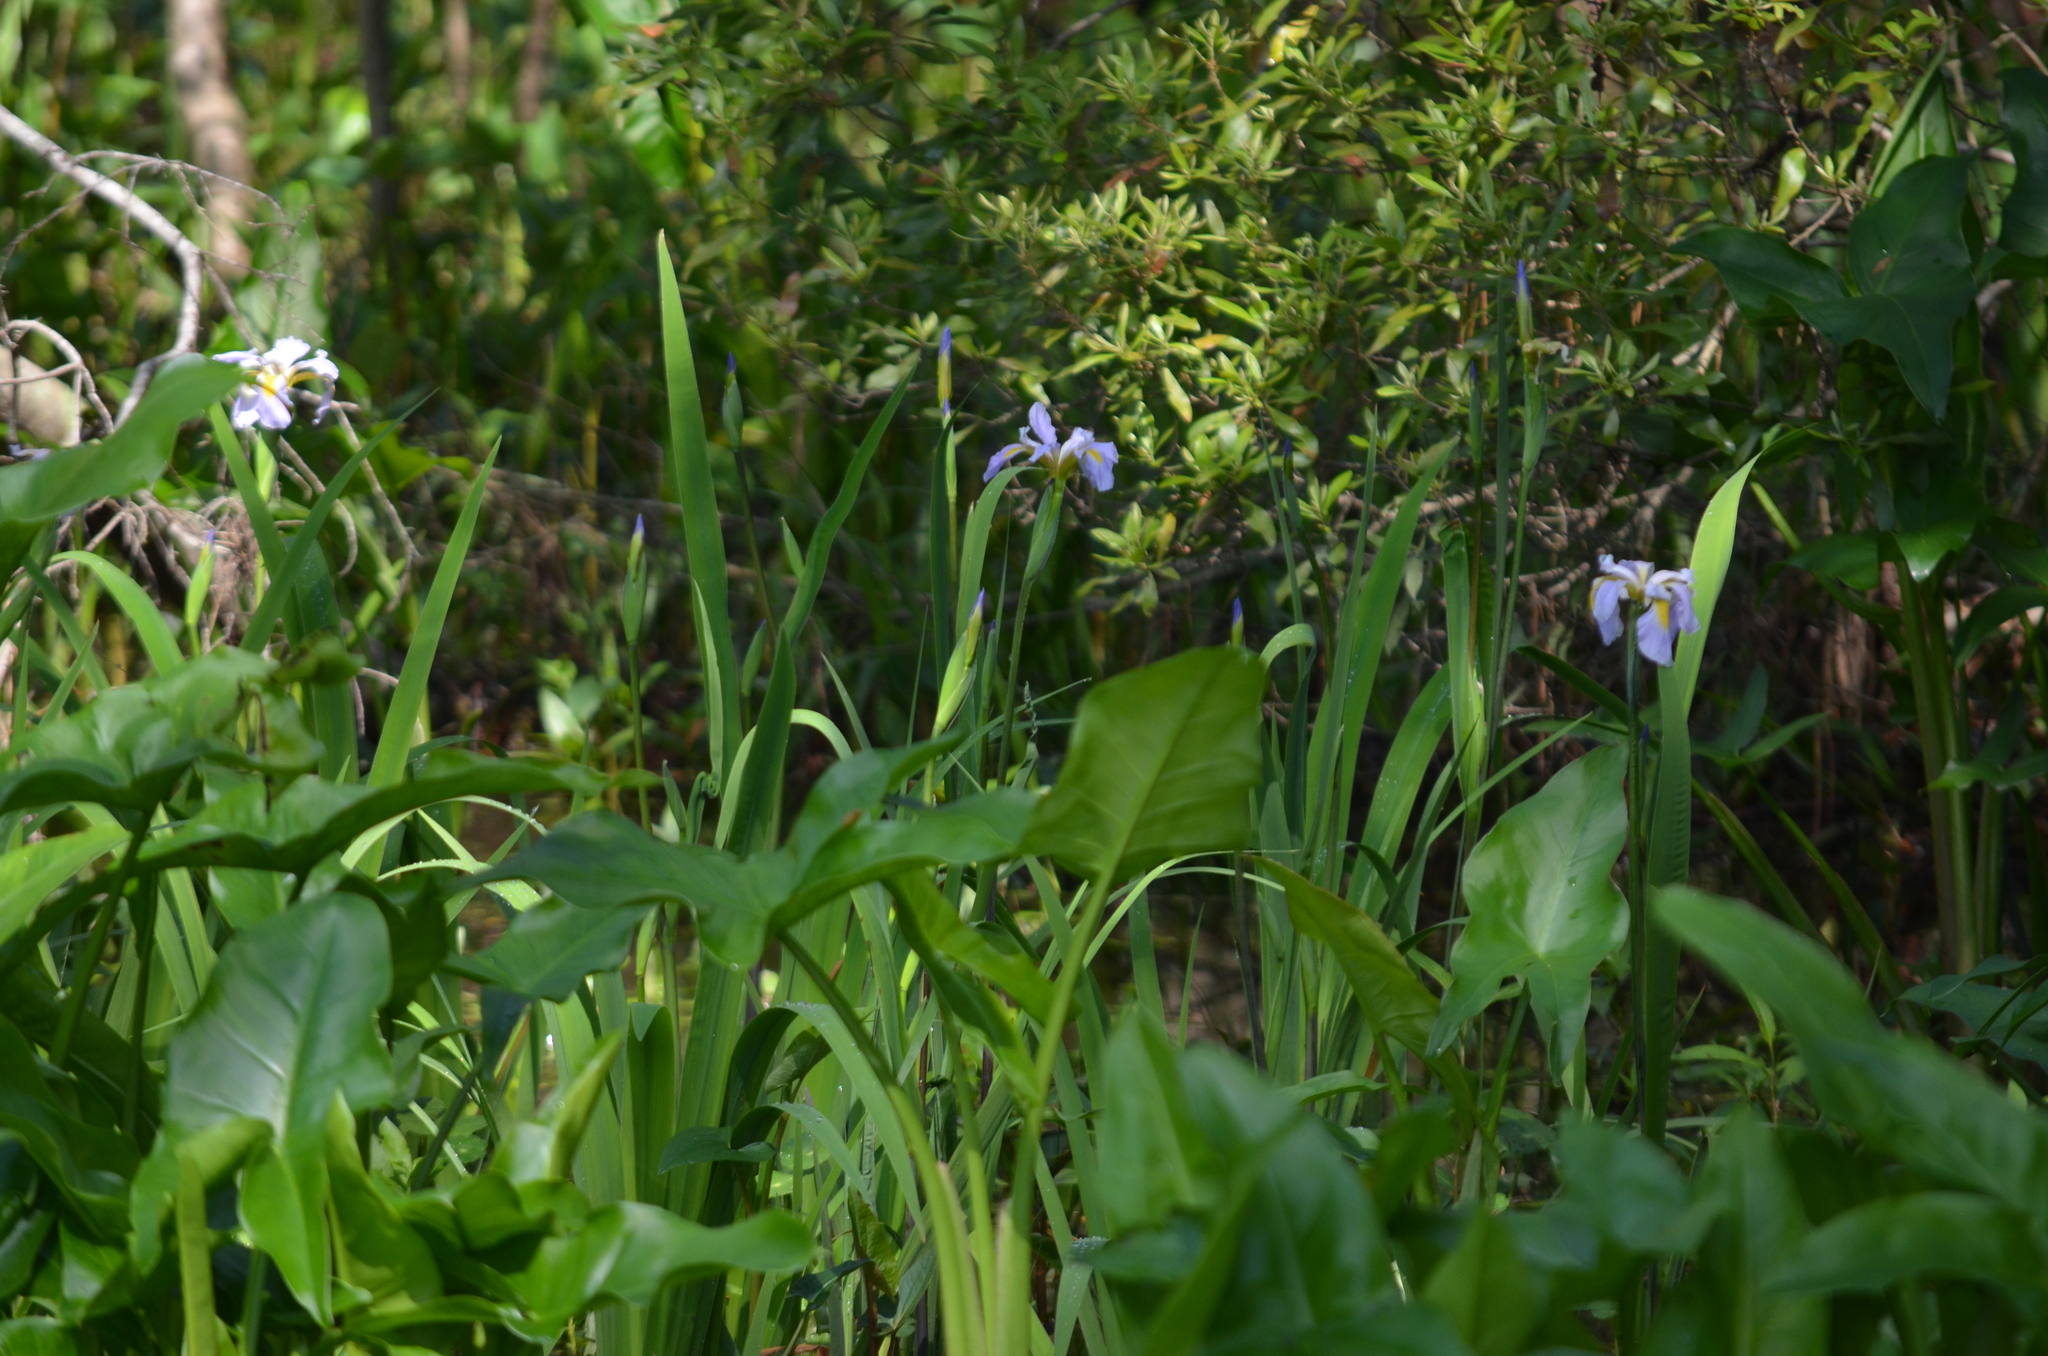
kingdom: Plantae
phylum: Tracheophyta
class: Liliopsida
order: Asparagales
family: Iridaceae
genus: Iris
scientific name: Iris giganticaerulea
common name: Giant blue iris
